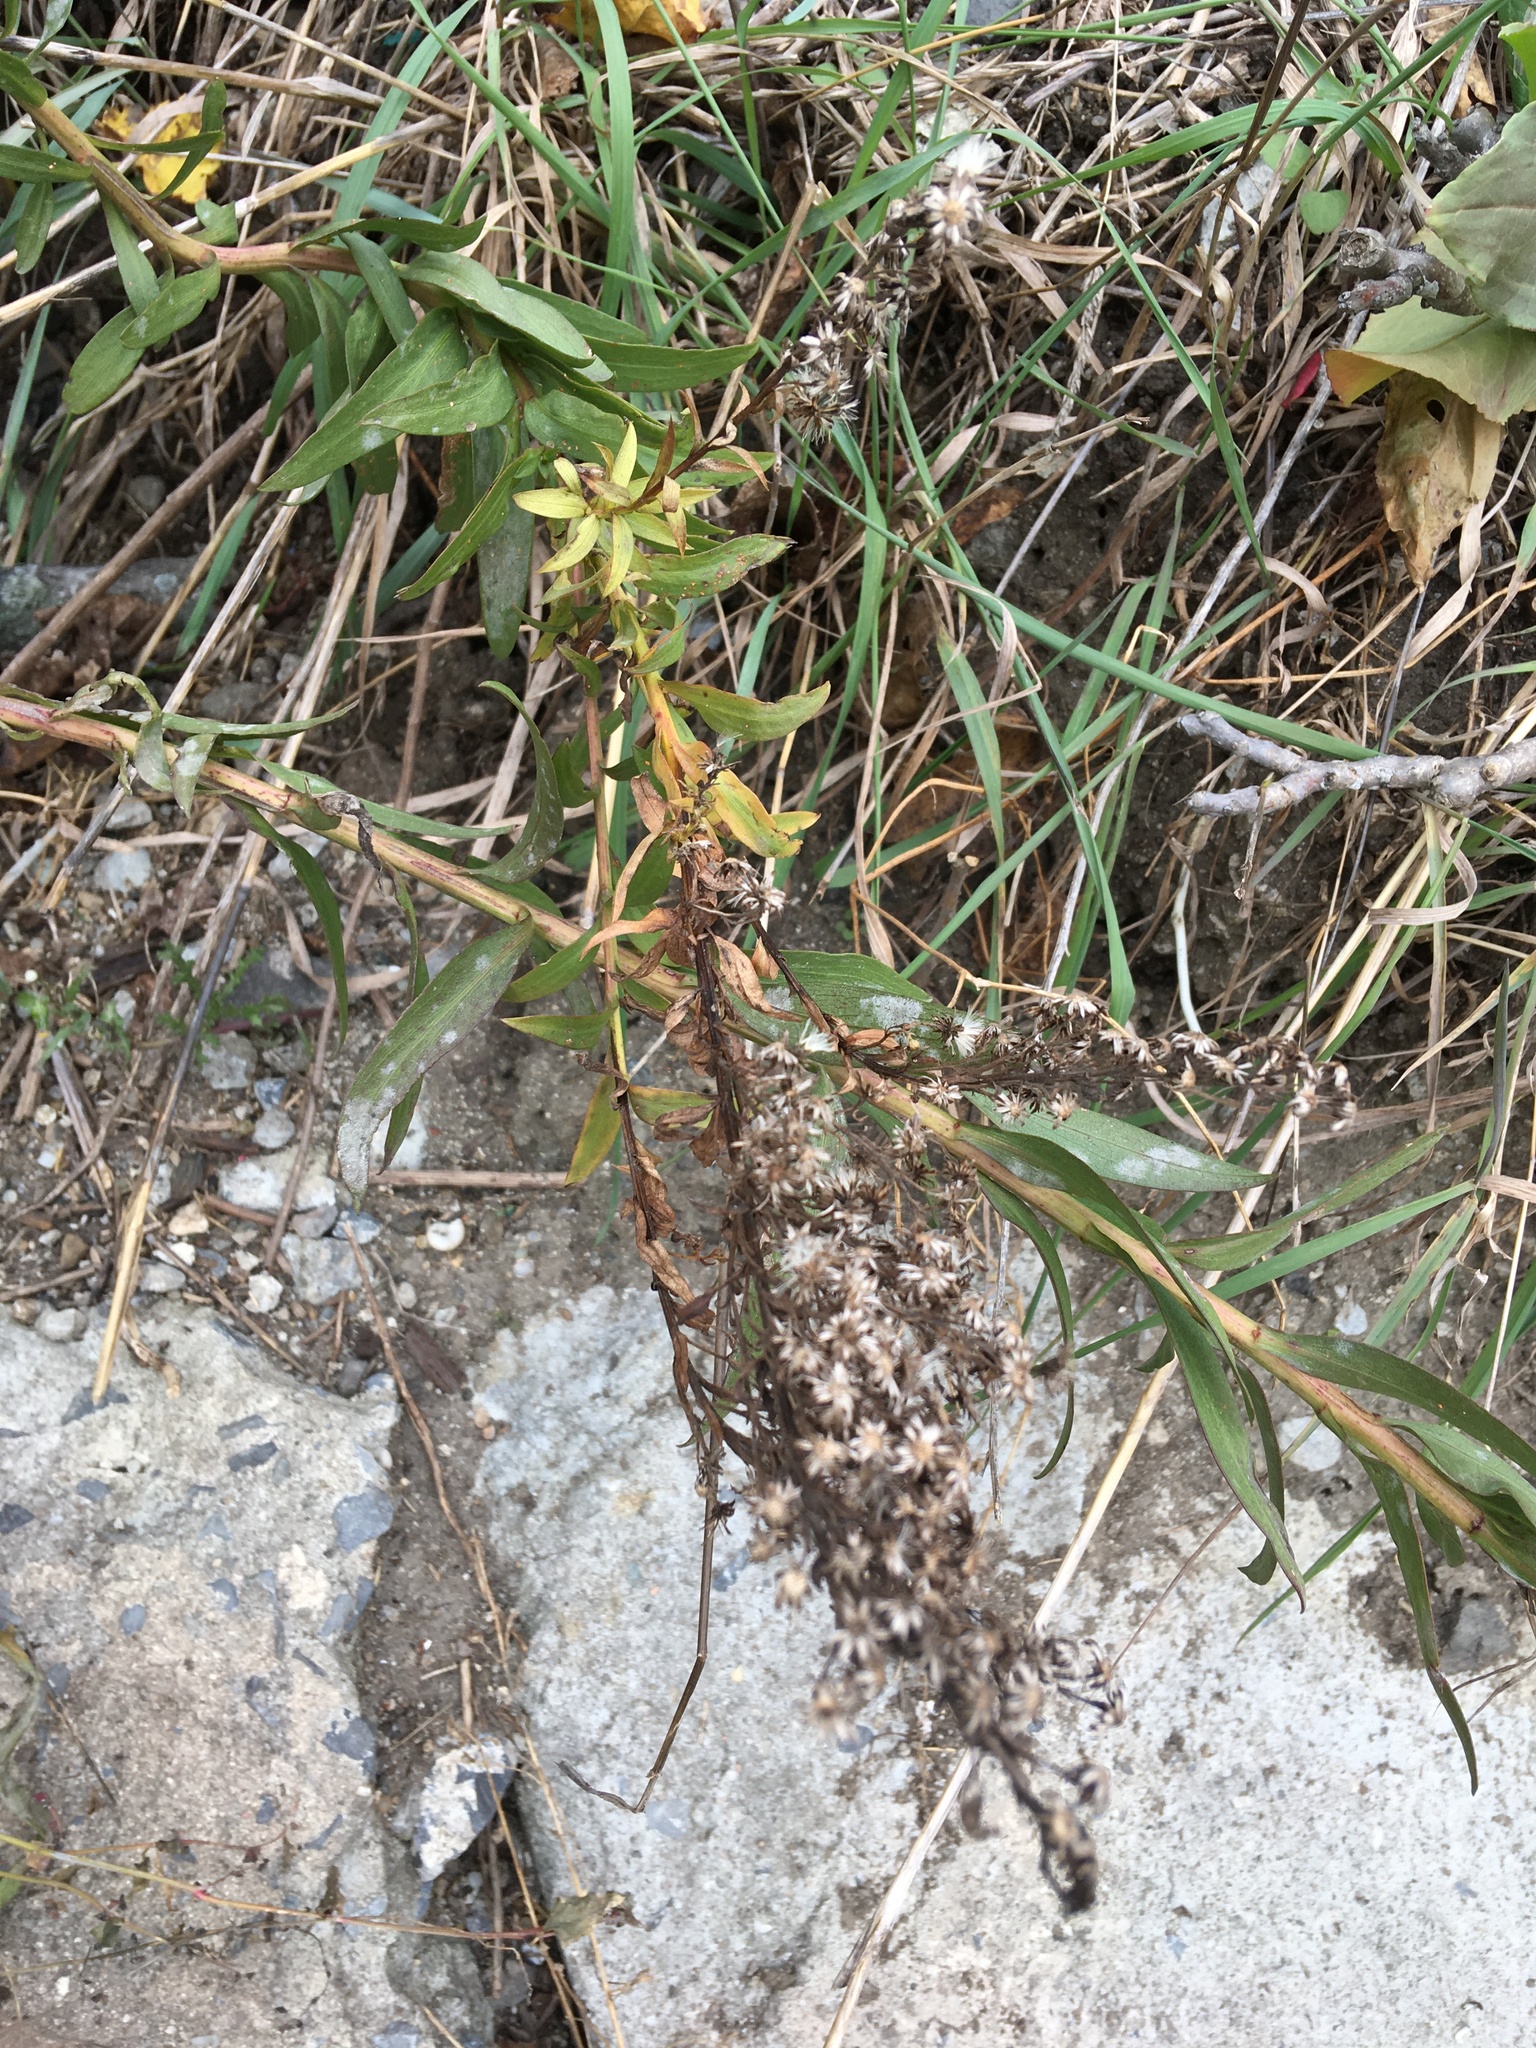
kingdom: Plantae
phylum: Tracheophyta
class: Magnoliopsida
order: Asterales
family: Asteraceae
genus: Solidago
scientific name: Solidago sempervirens
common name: Salt-marsh goldenrod
